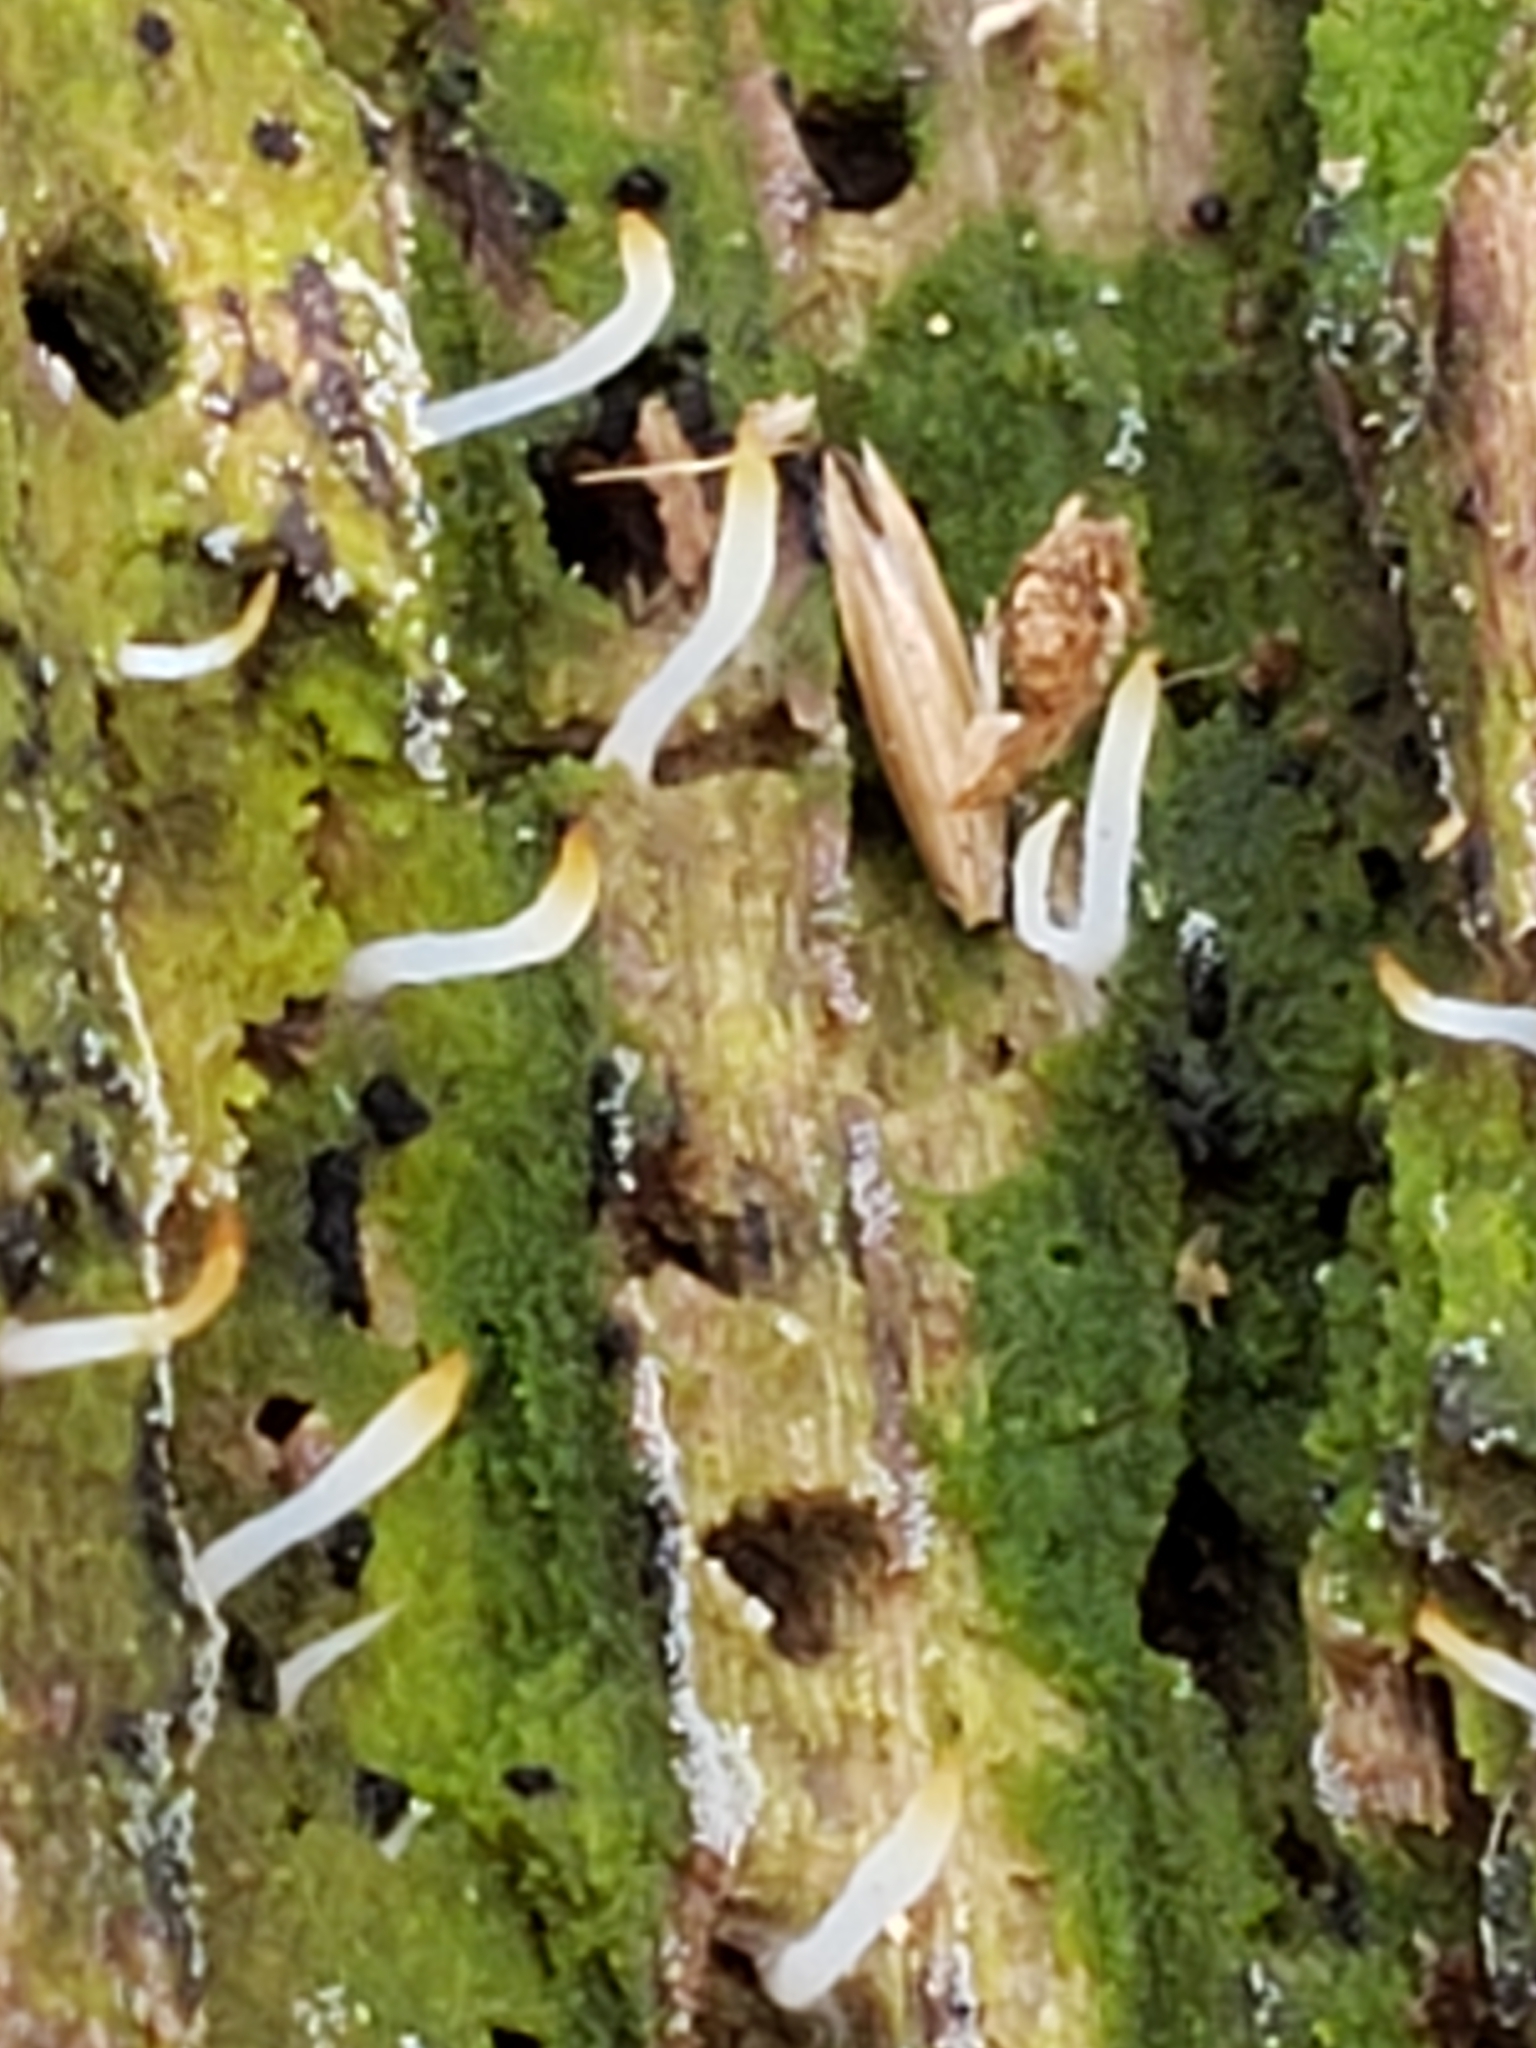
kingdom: Fungi
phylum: Basidiomycota
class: Agaricomycetes
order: Cantharellales
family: Hydnaceae
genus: Multiclavula
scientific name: Multiclavula mucida
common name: White green-algae coral
